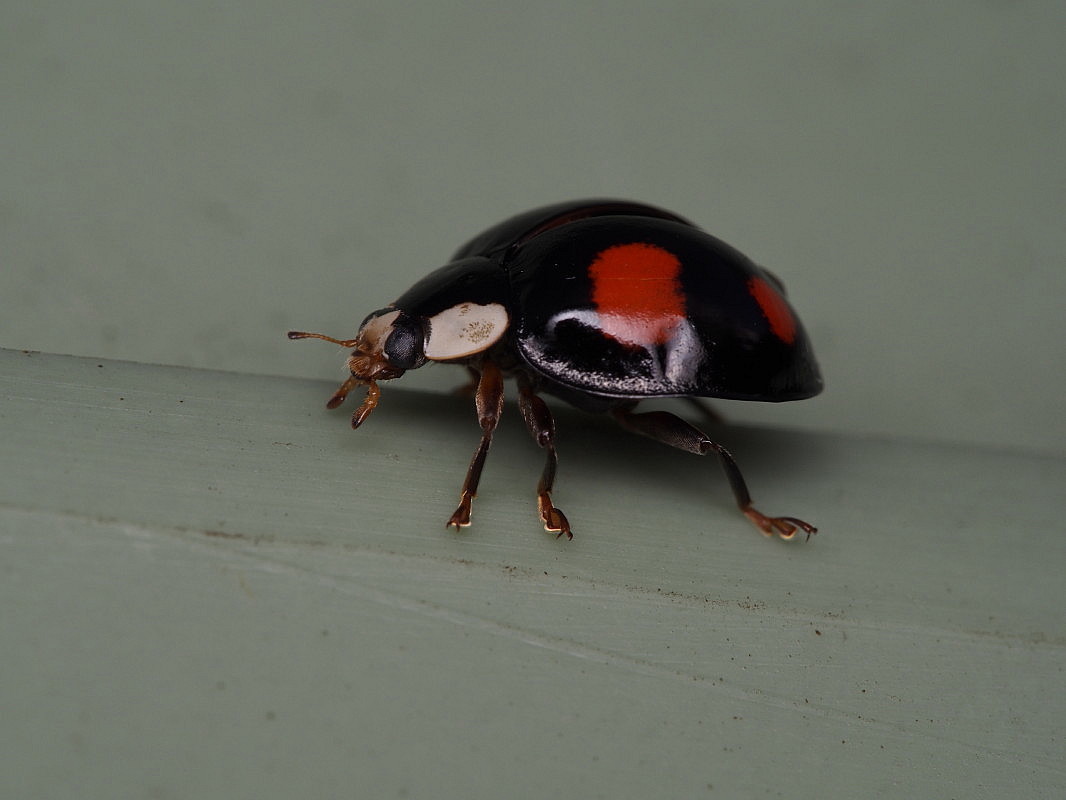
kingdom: Animalia
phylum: Arthropoda
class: Insecta
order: Coleoptera
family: Coccinellidae
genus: Harmonia
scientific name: Harmonia axyridis
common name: Harlequin ladybird
